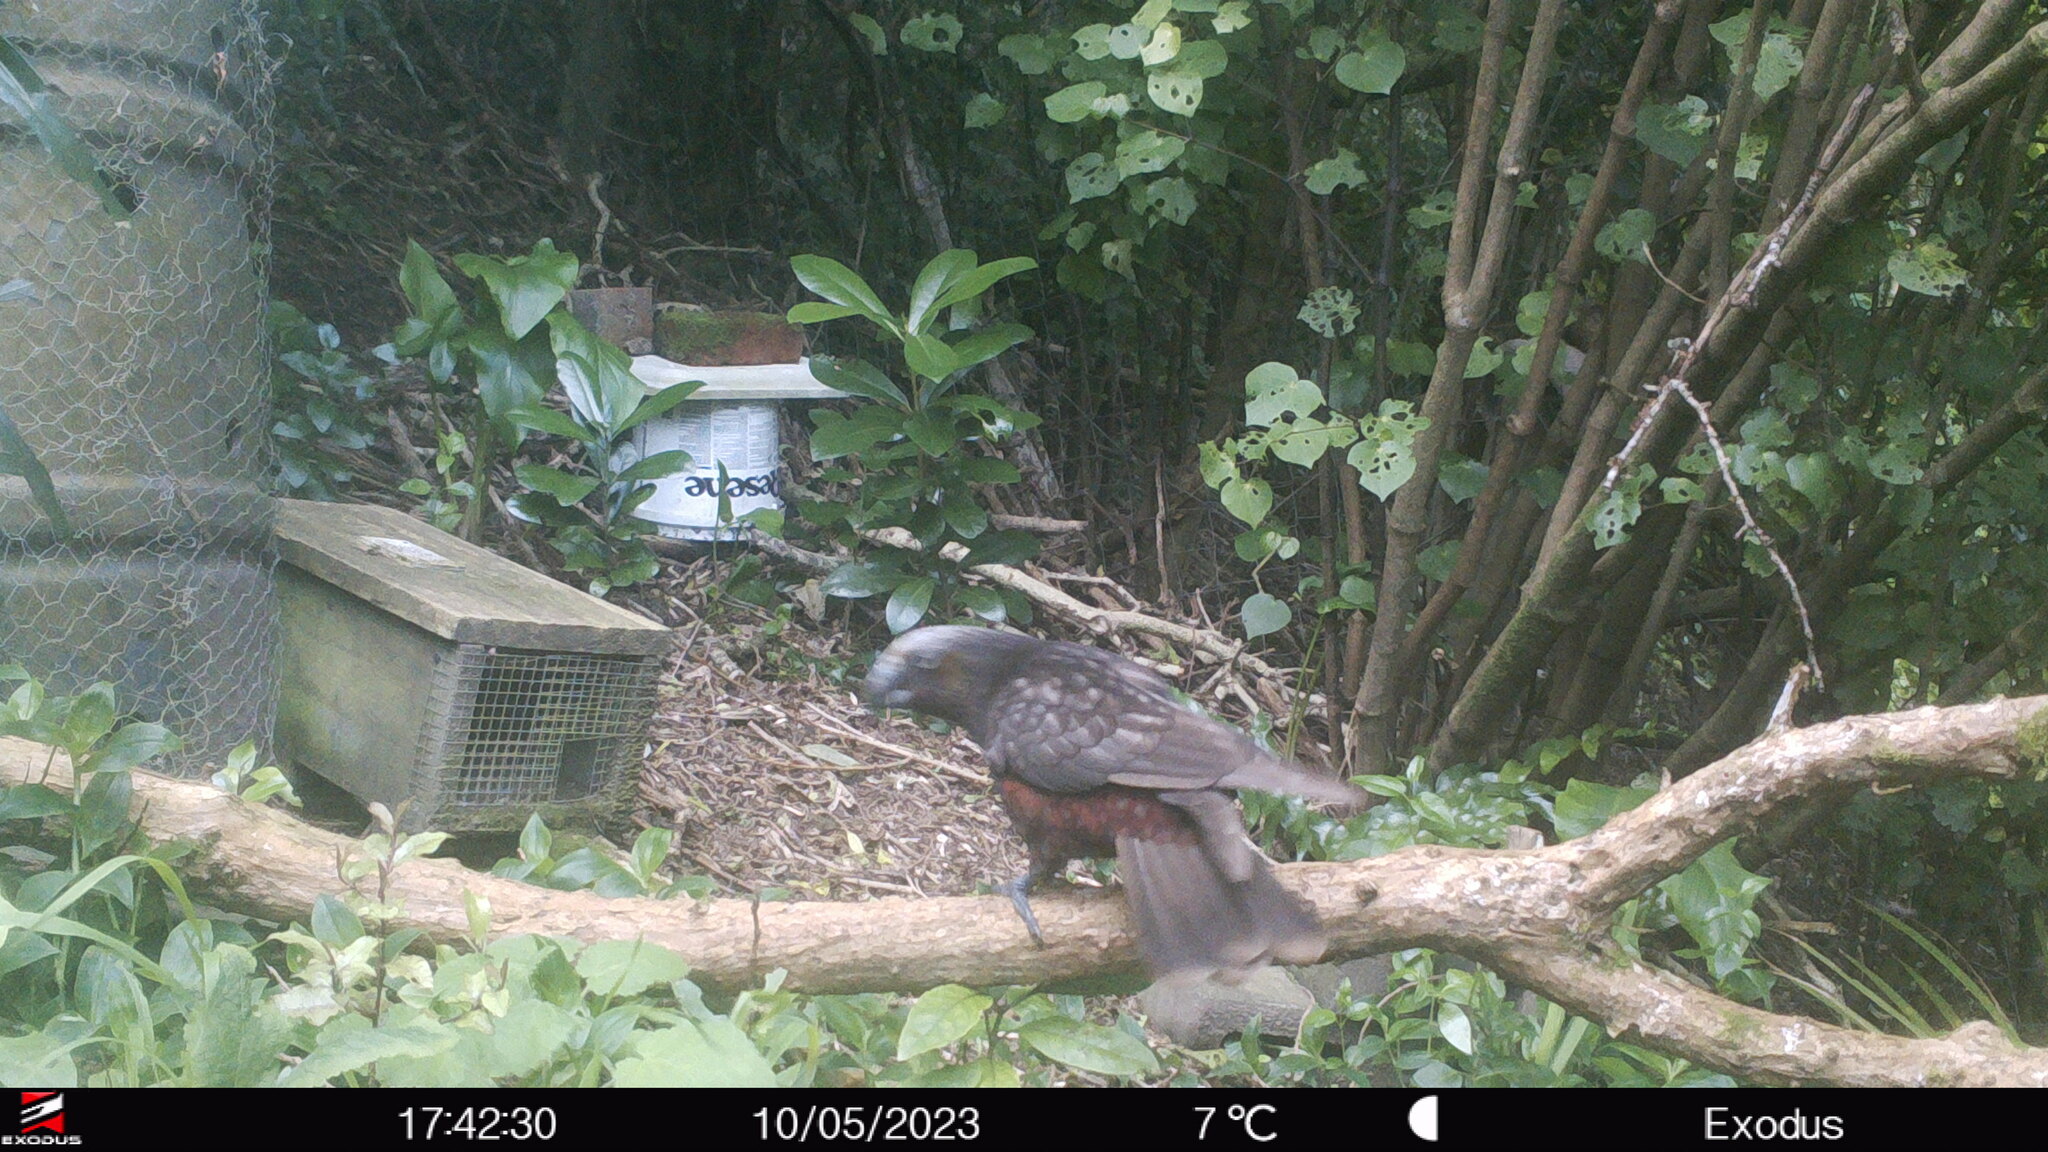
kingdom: Animalia
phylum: Chordata
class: Aves
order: Psittaciformes
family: Psittacidae
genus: Nestor
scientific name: Nestor meridionalis
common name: New zealand kaka
